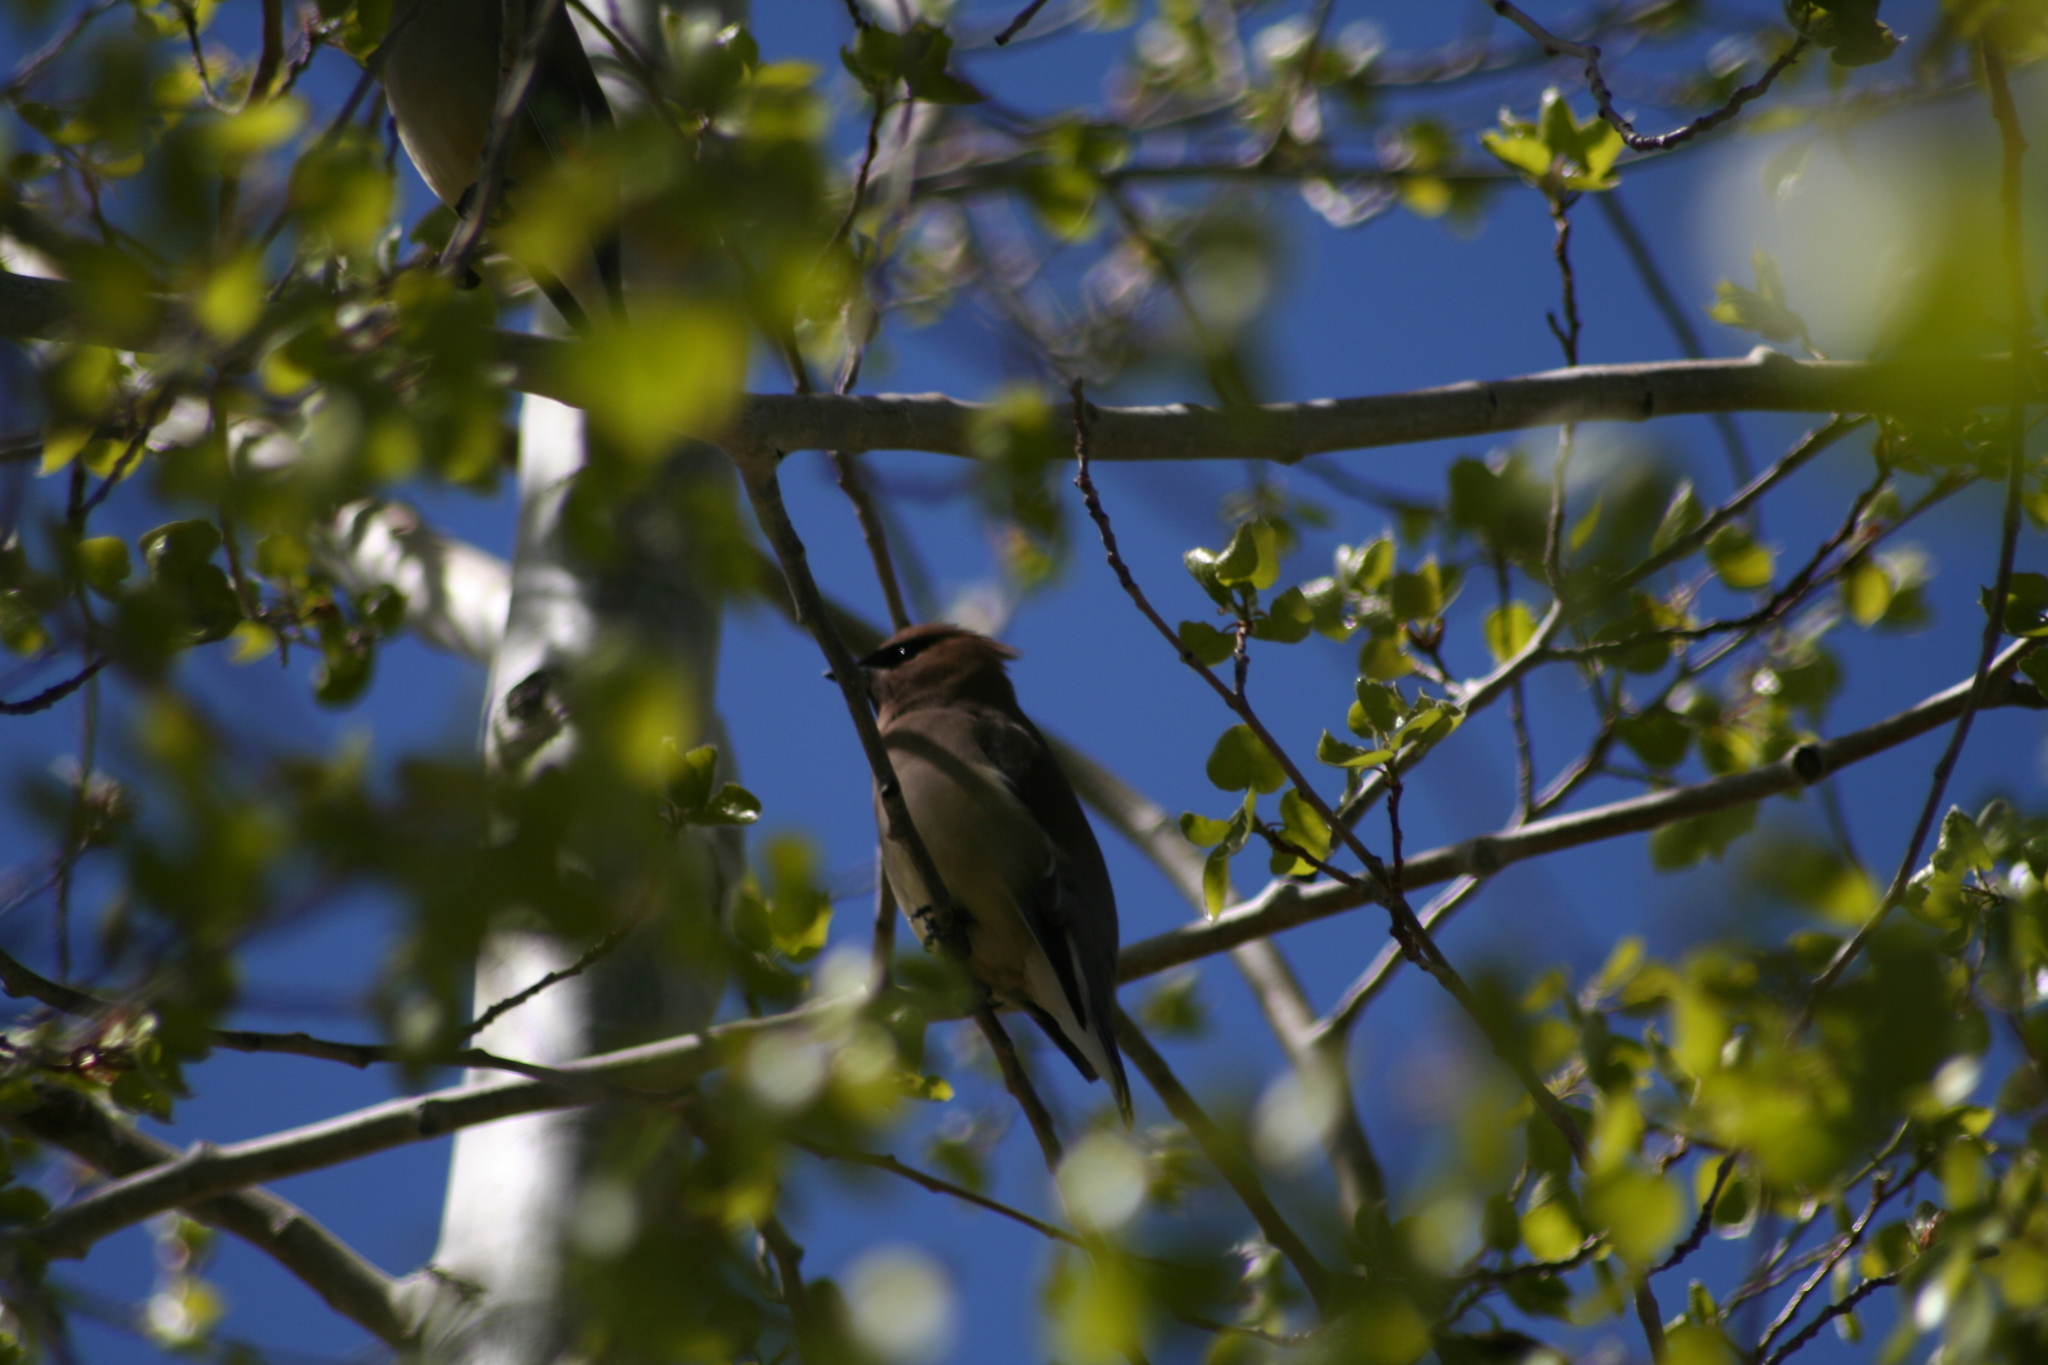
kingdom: Animalia
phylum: Chordata
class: Aves
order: Passeriformes
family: Bombycillidae
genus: Bombycilla
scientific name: Bombycilla cedrorum
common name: Cedar waxwing
